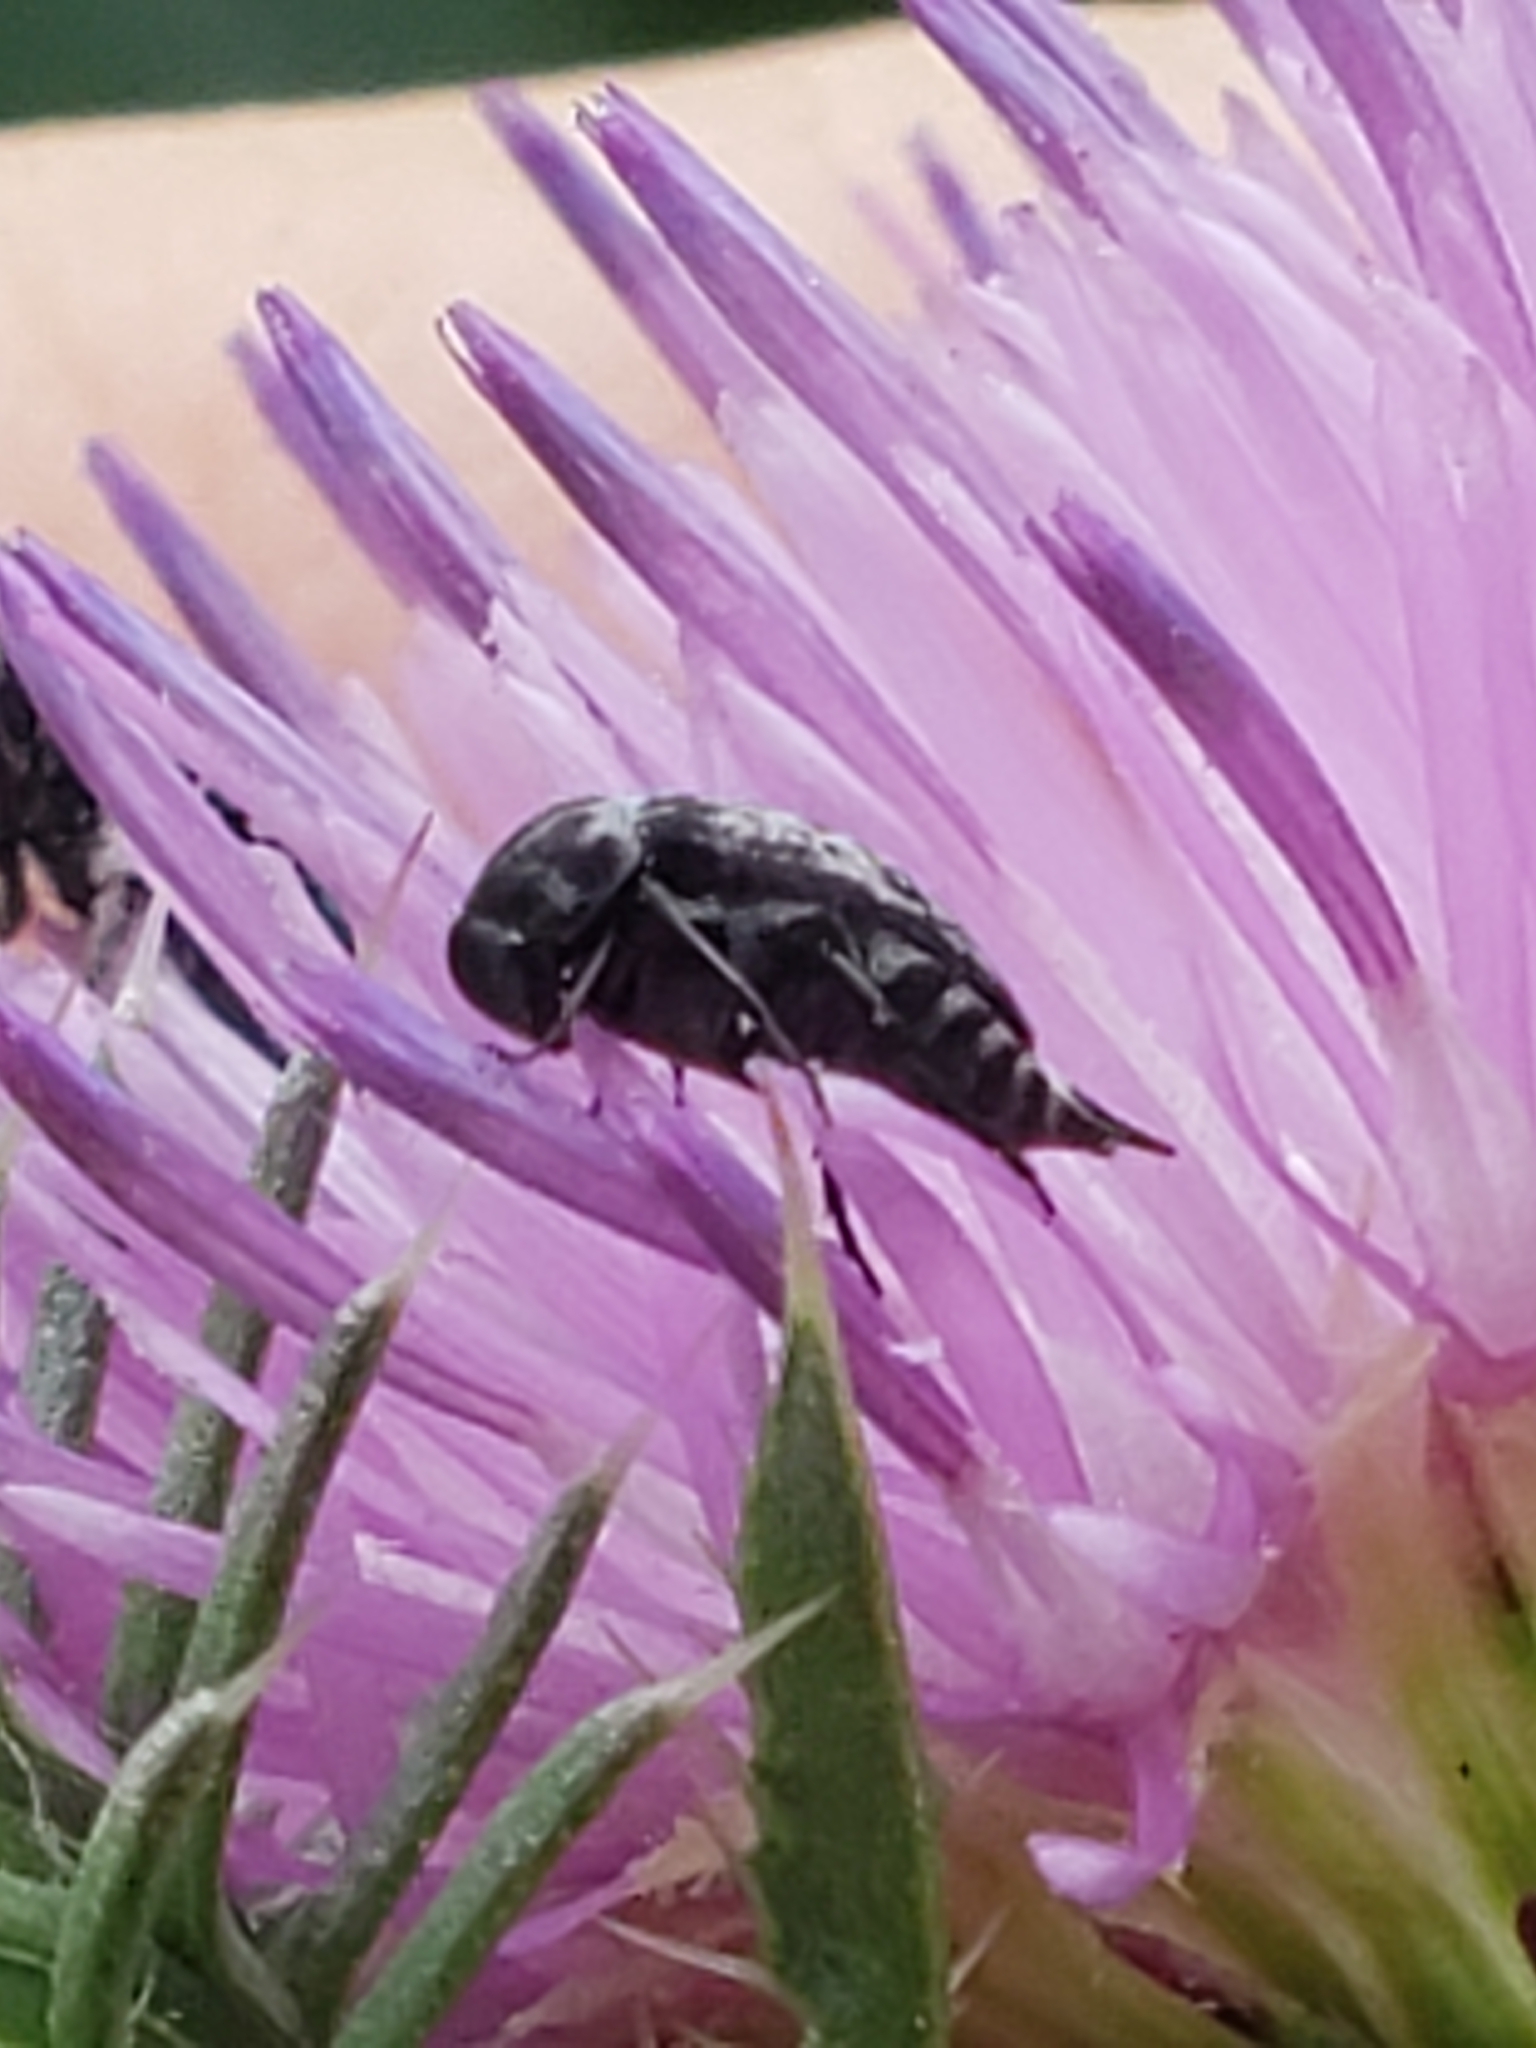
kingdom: Animalia
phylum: Arthropoda
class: Insecta
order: Coleoptera
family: Mordellidae
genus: Mordella
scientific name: Mordella marginata
